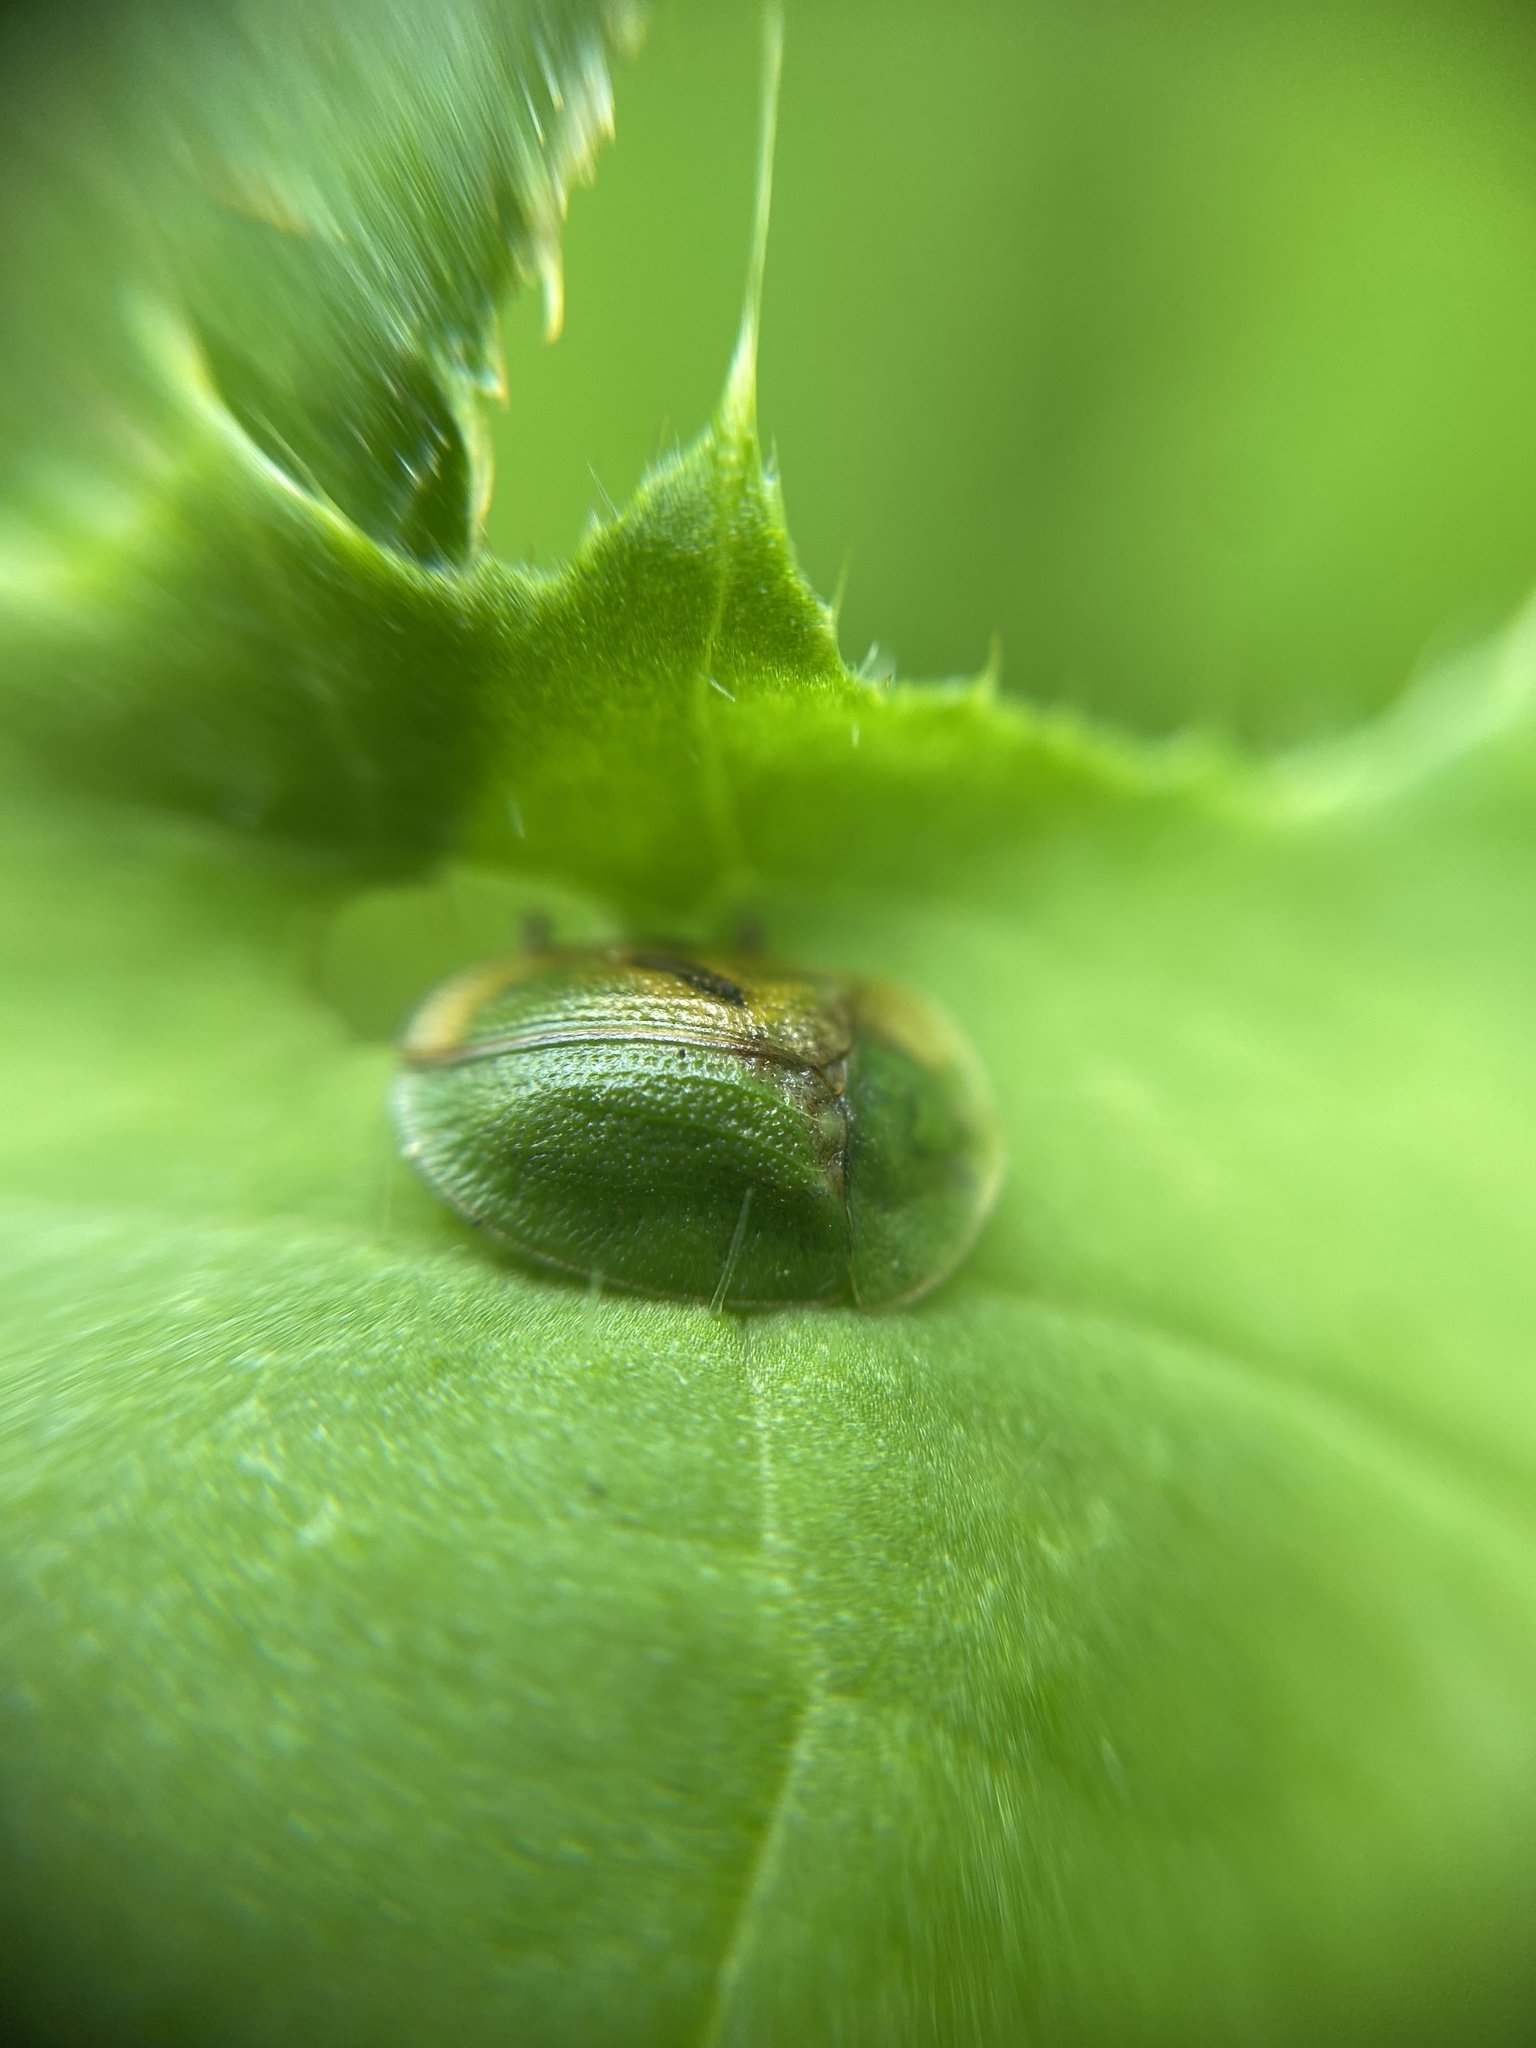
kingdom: Animalia
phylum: Arthropoda
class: Insecta
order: Coleoptera
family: Chrysomelidae
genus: Cassida
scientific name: Cassida rubiginosa
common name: Thistle tortoise beetle
